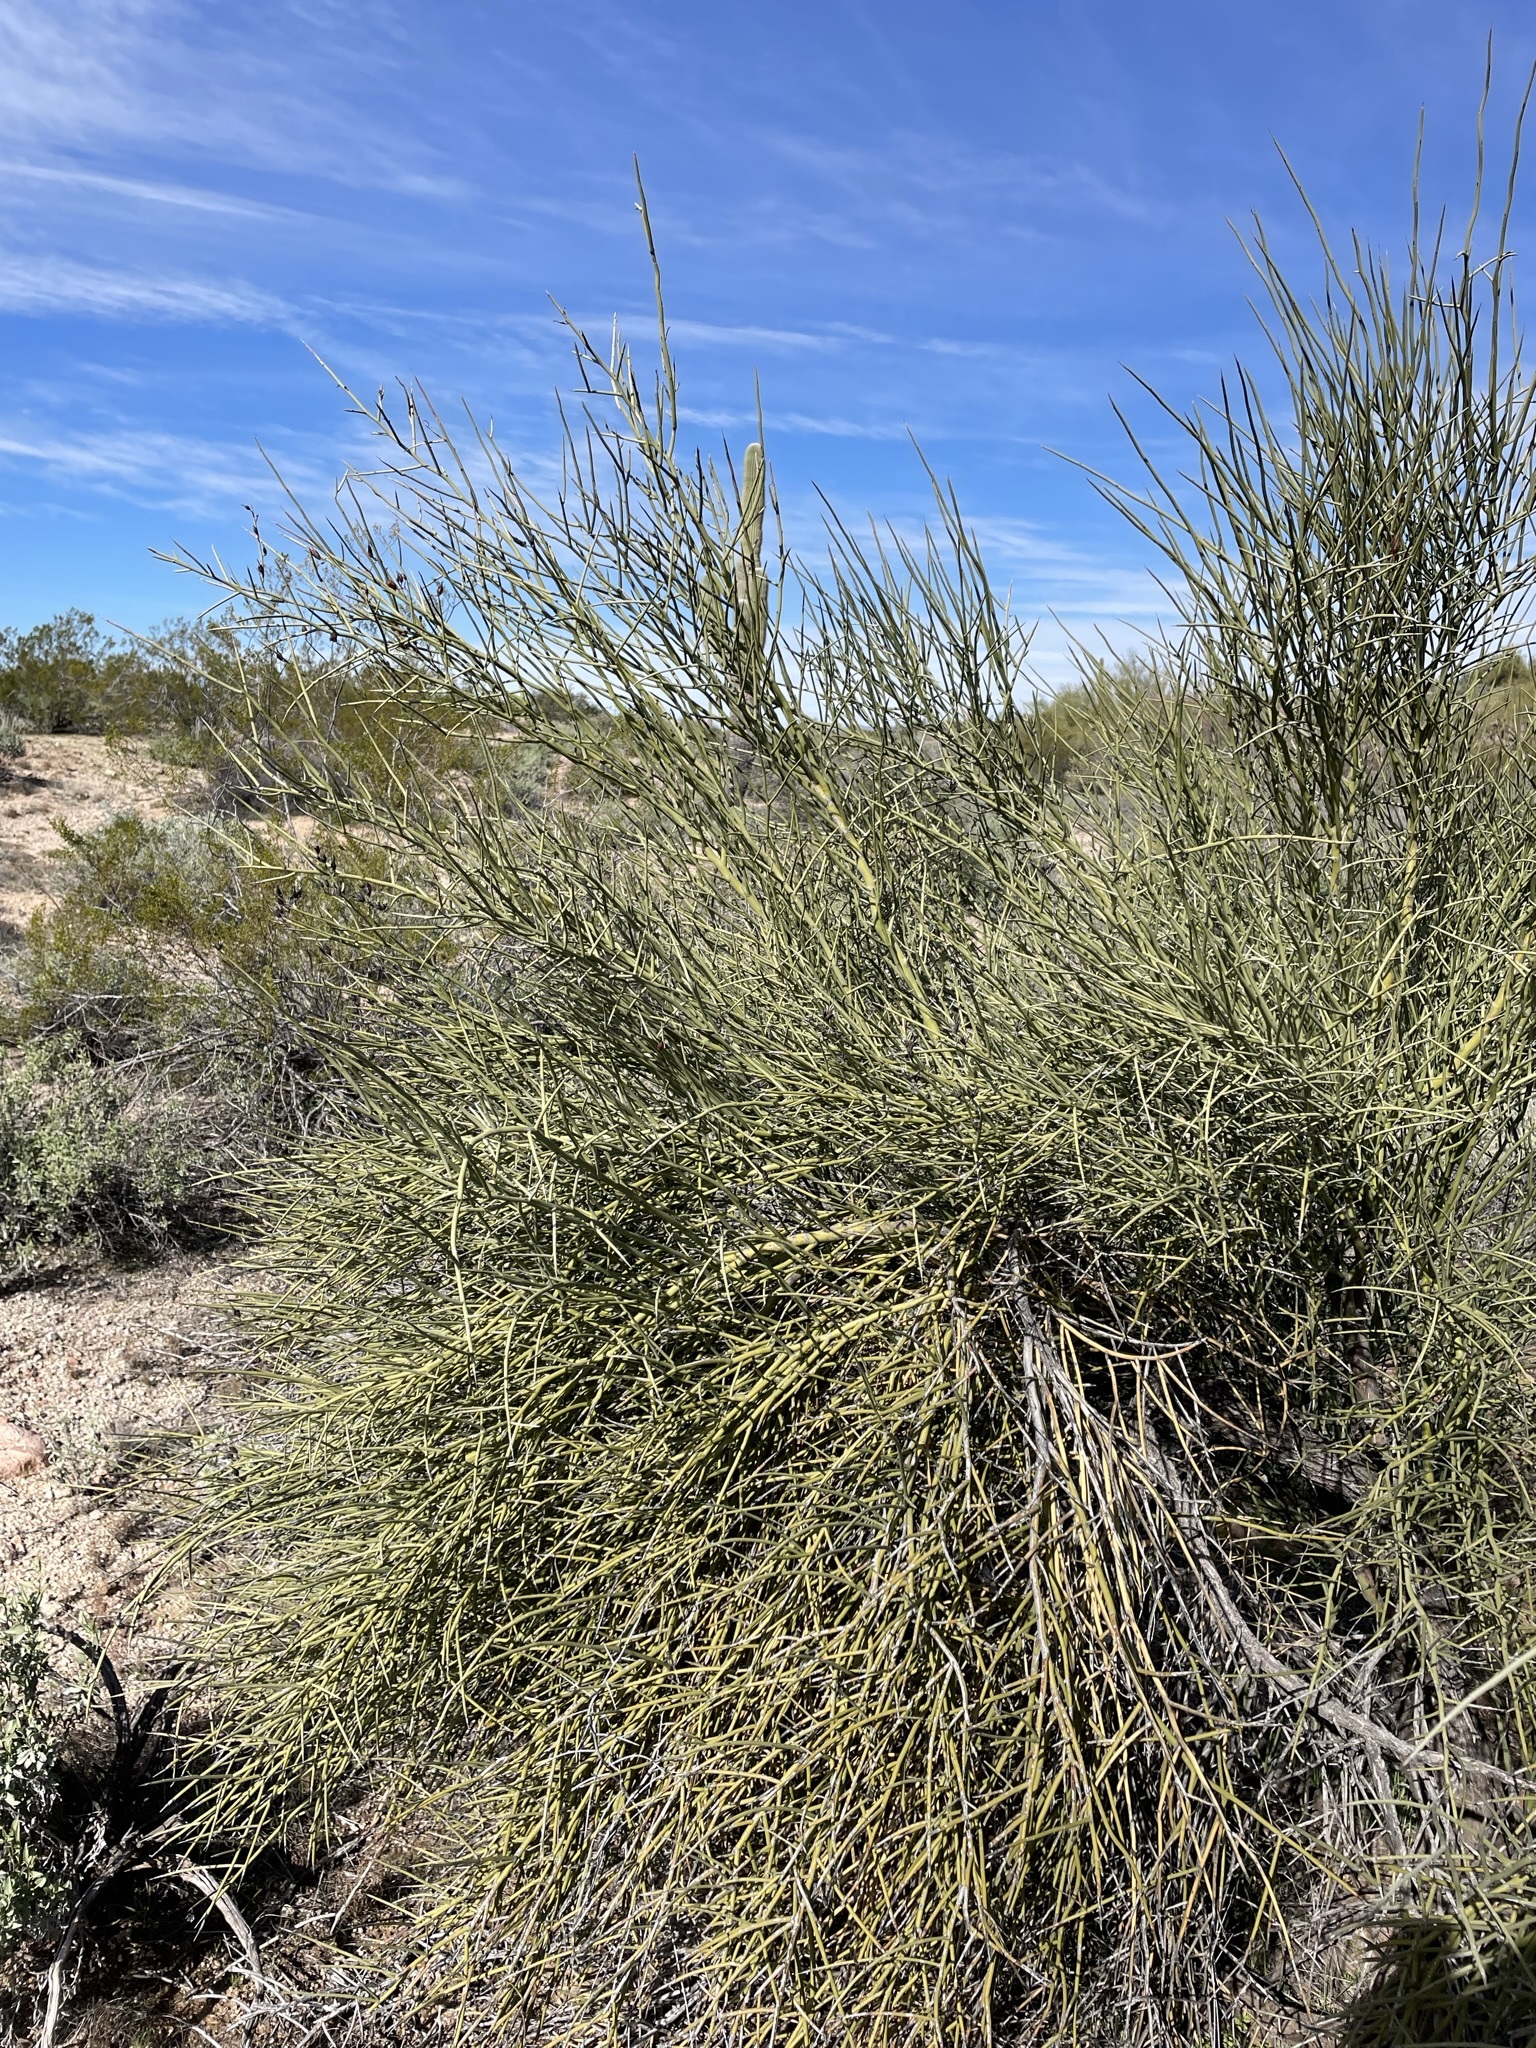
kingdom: Plantae
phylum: Tracheophyta
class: Magnoliopsida
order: Celastrales
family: Celastraceae
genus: Canotia
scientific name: Canotia holacantha
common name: Crucifixion thorns
